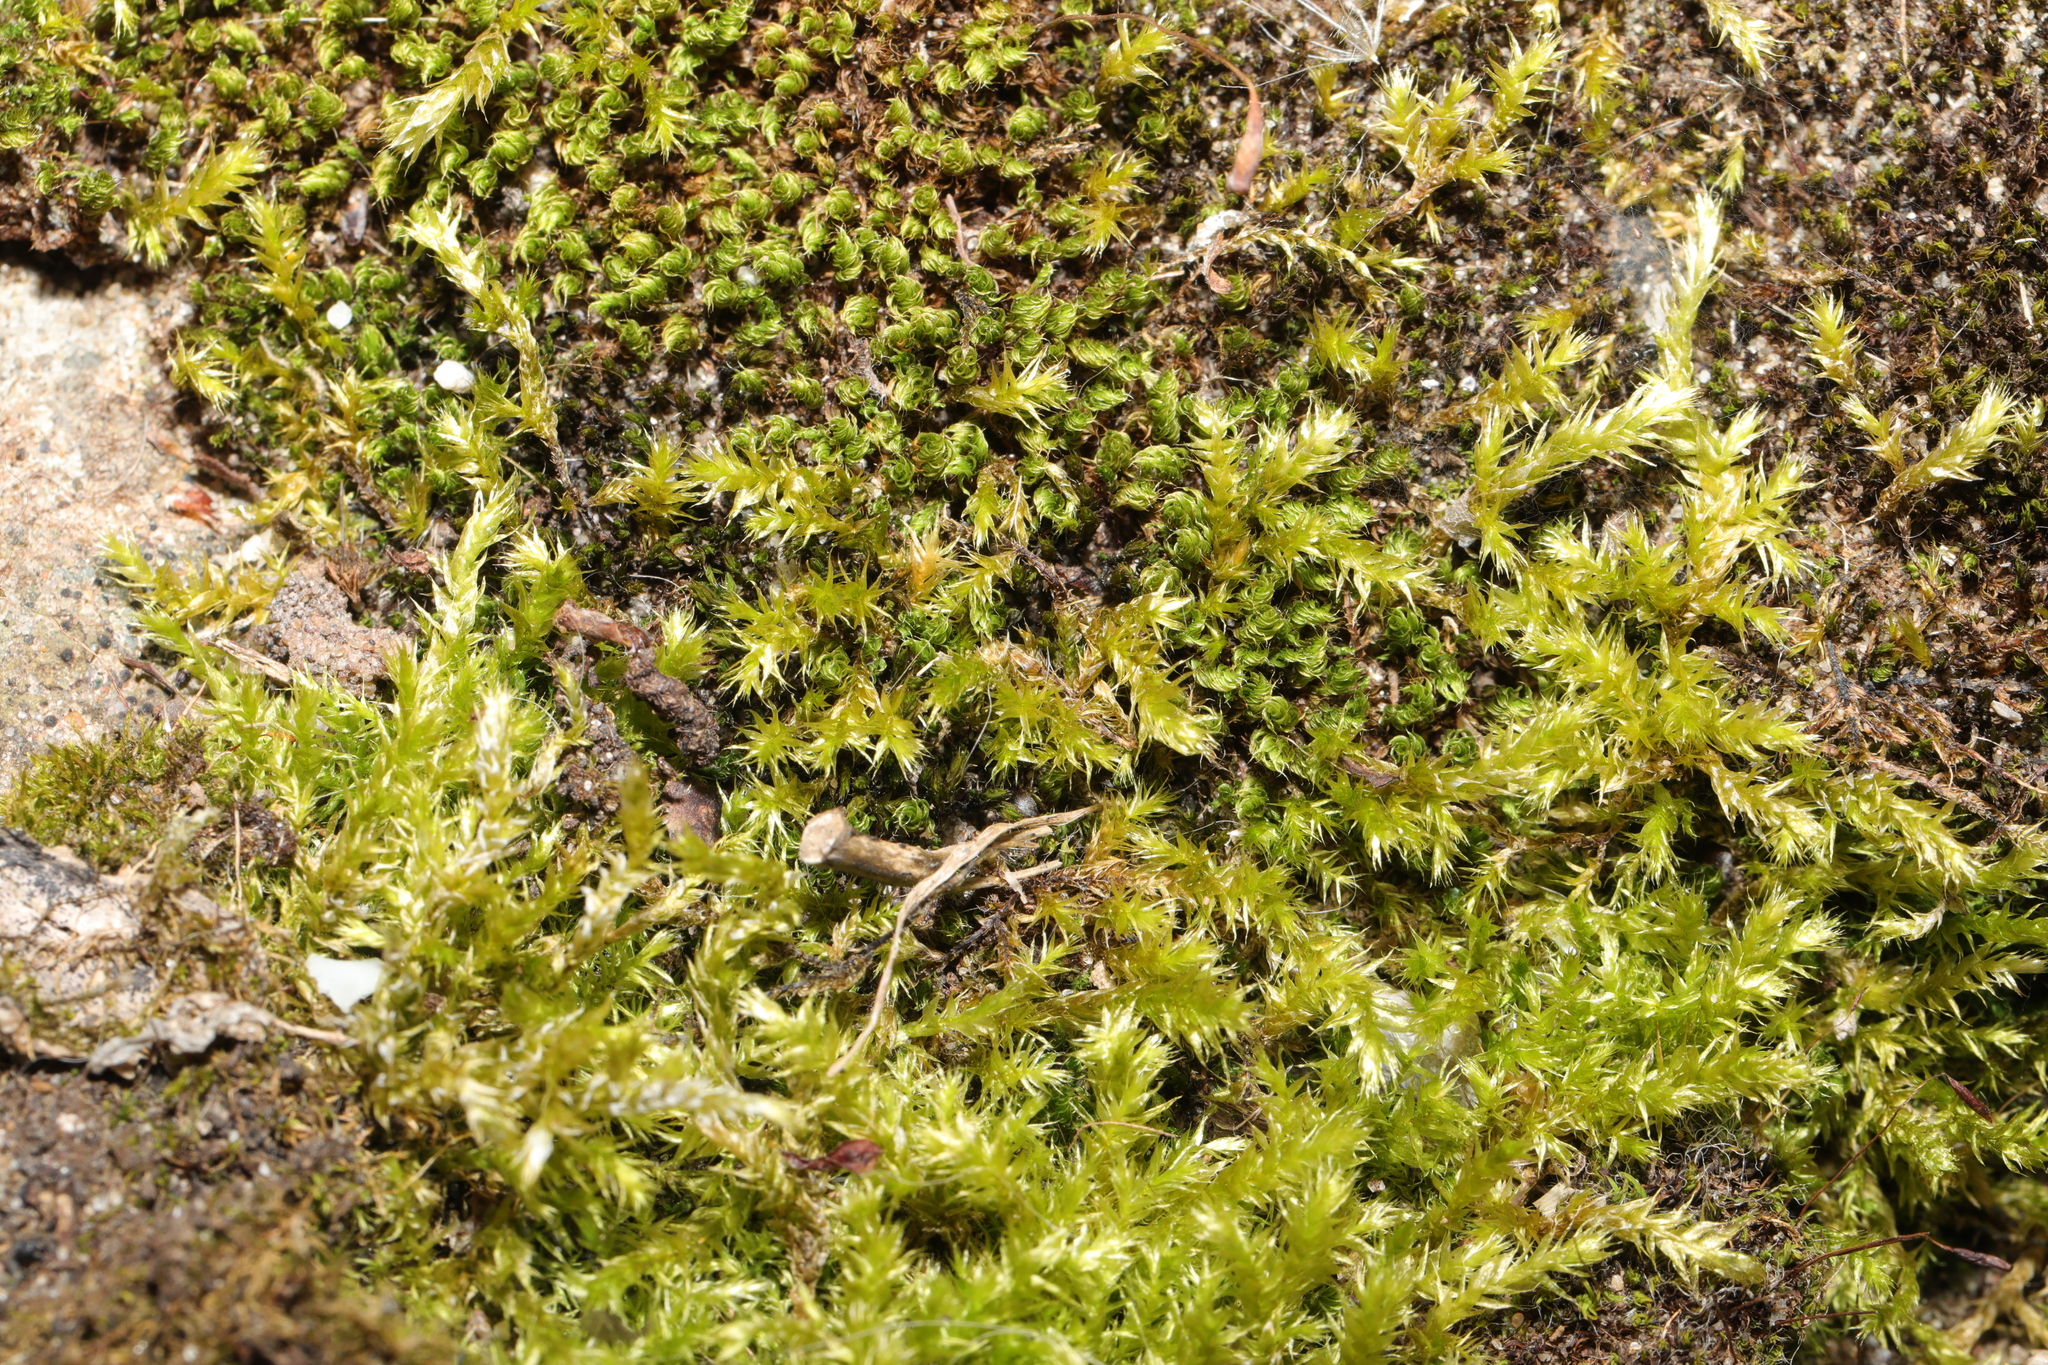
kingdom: Plantae
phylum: Bryophyta
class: Bryopsida
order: Hypnales
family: Brachytheciaceae
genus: Brachythecium
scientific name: Brachythecium rutabulum
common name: Rough-stalked feather-moss
